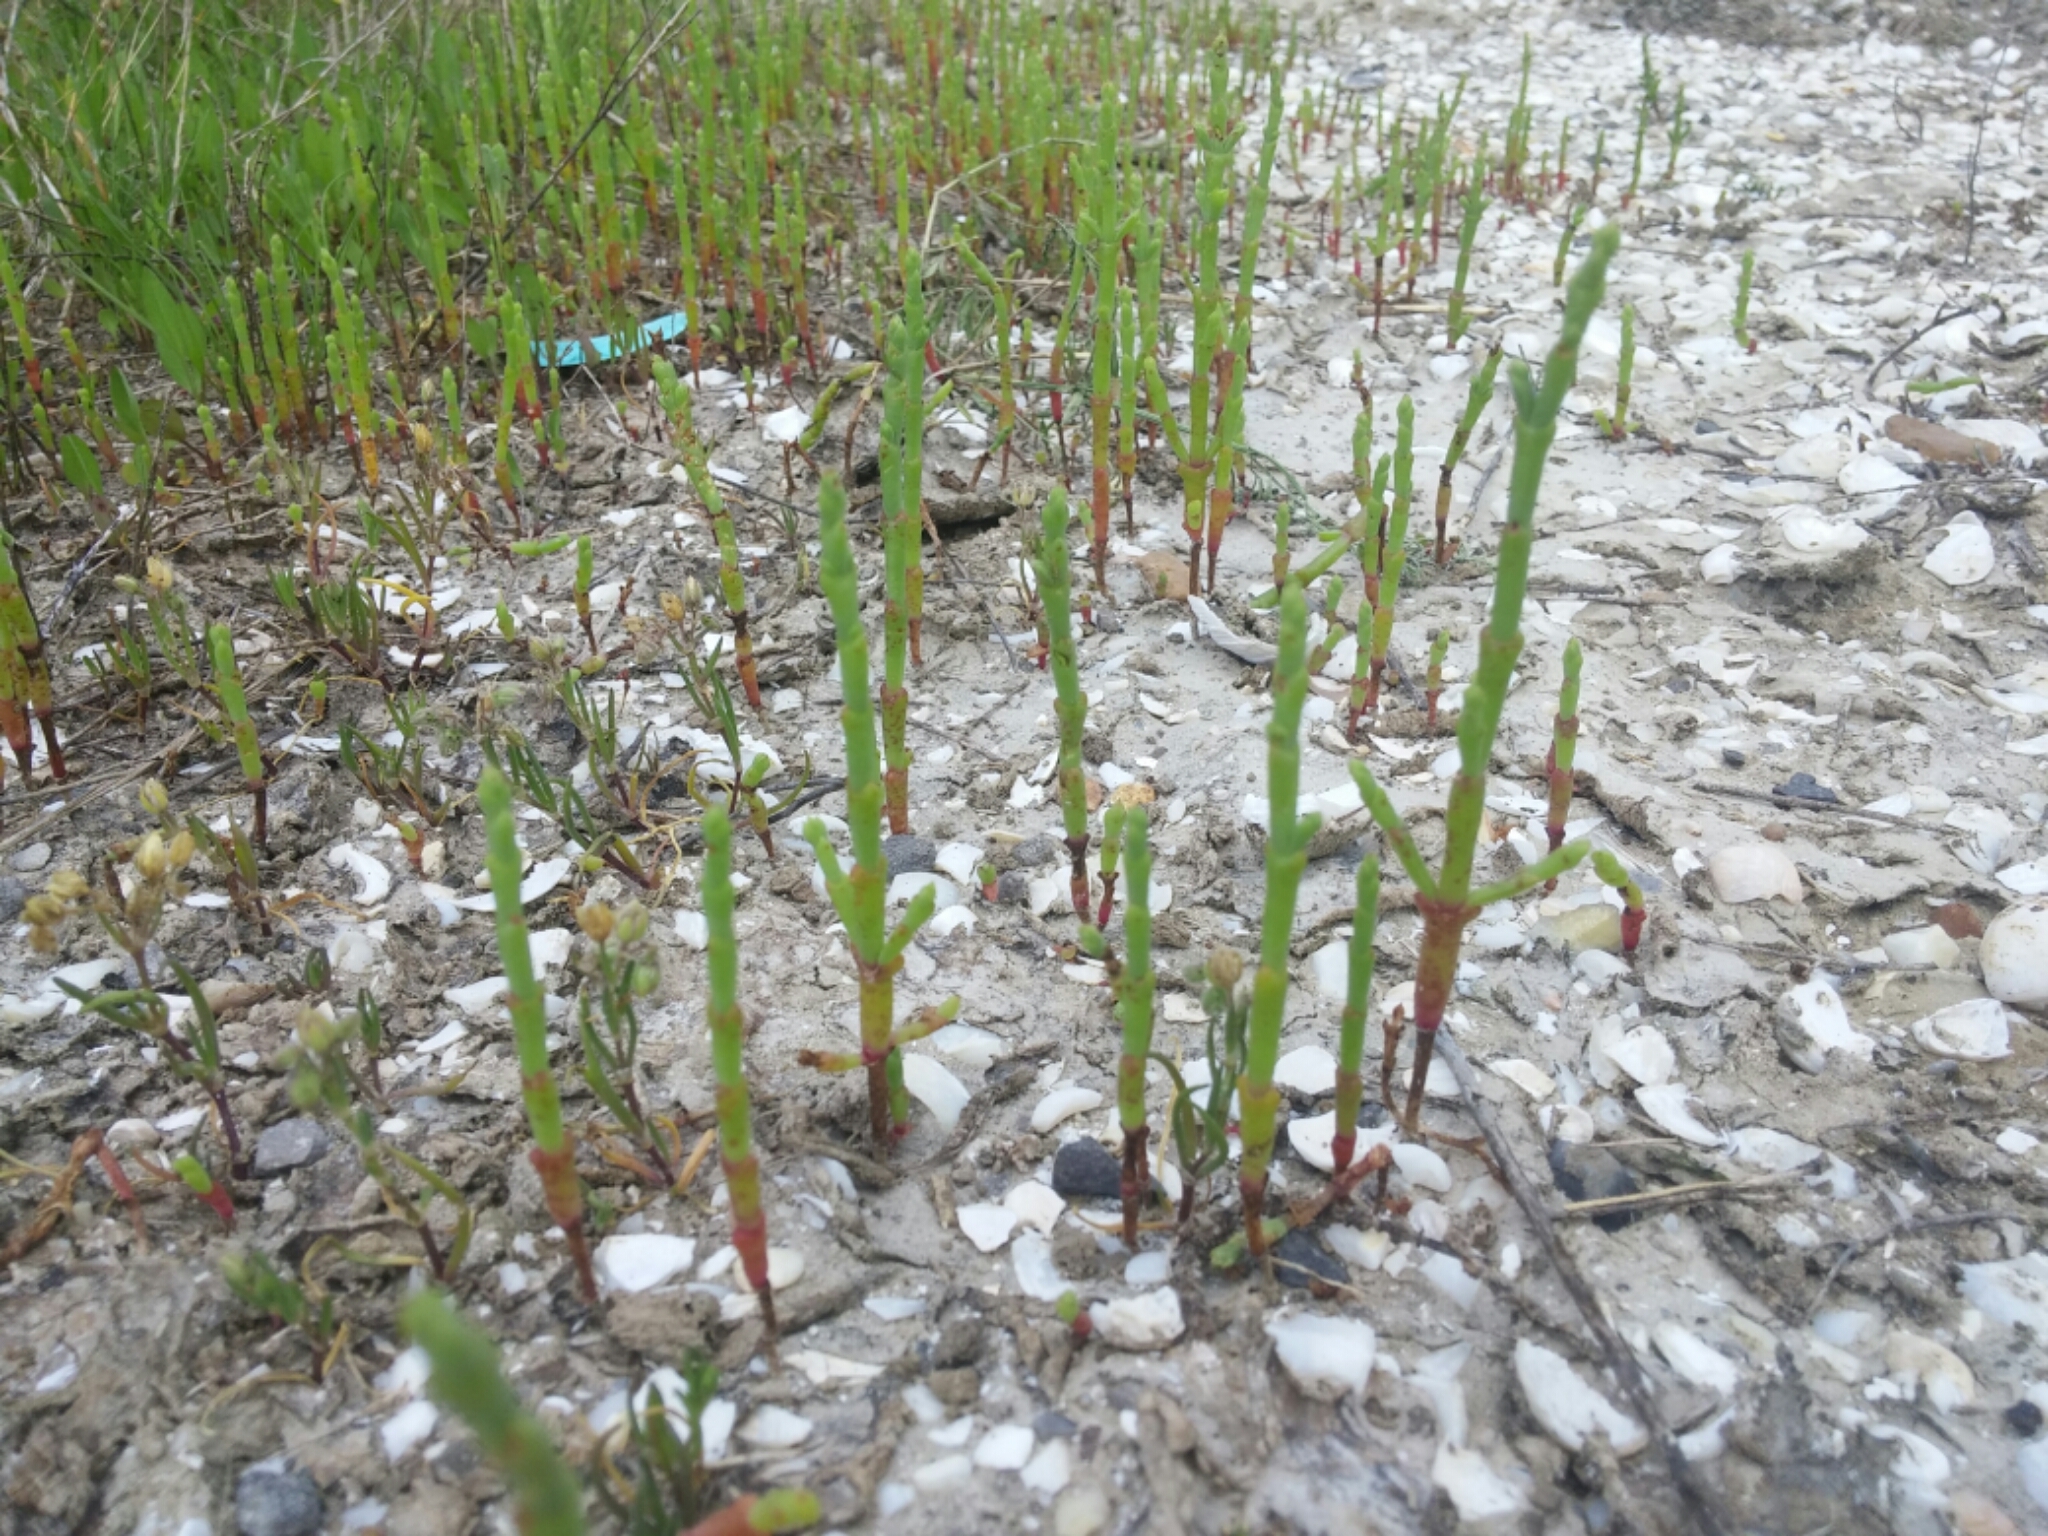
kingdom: Plantae
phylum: Tracheophyta
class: Magnoliopsida
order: Caryophyllales
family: Amaranthaceae
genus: Salicornia
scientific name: Salicornia bigelovii
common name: Dwarf glasswort
